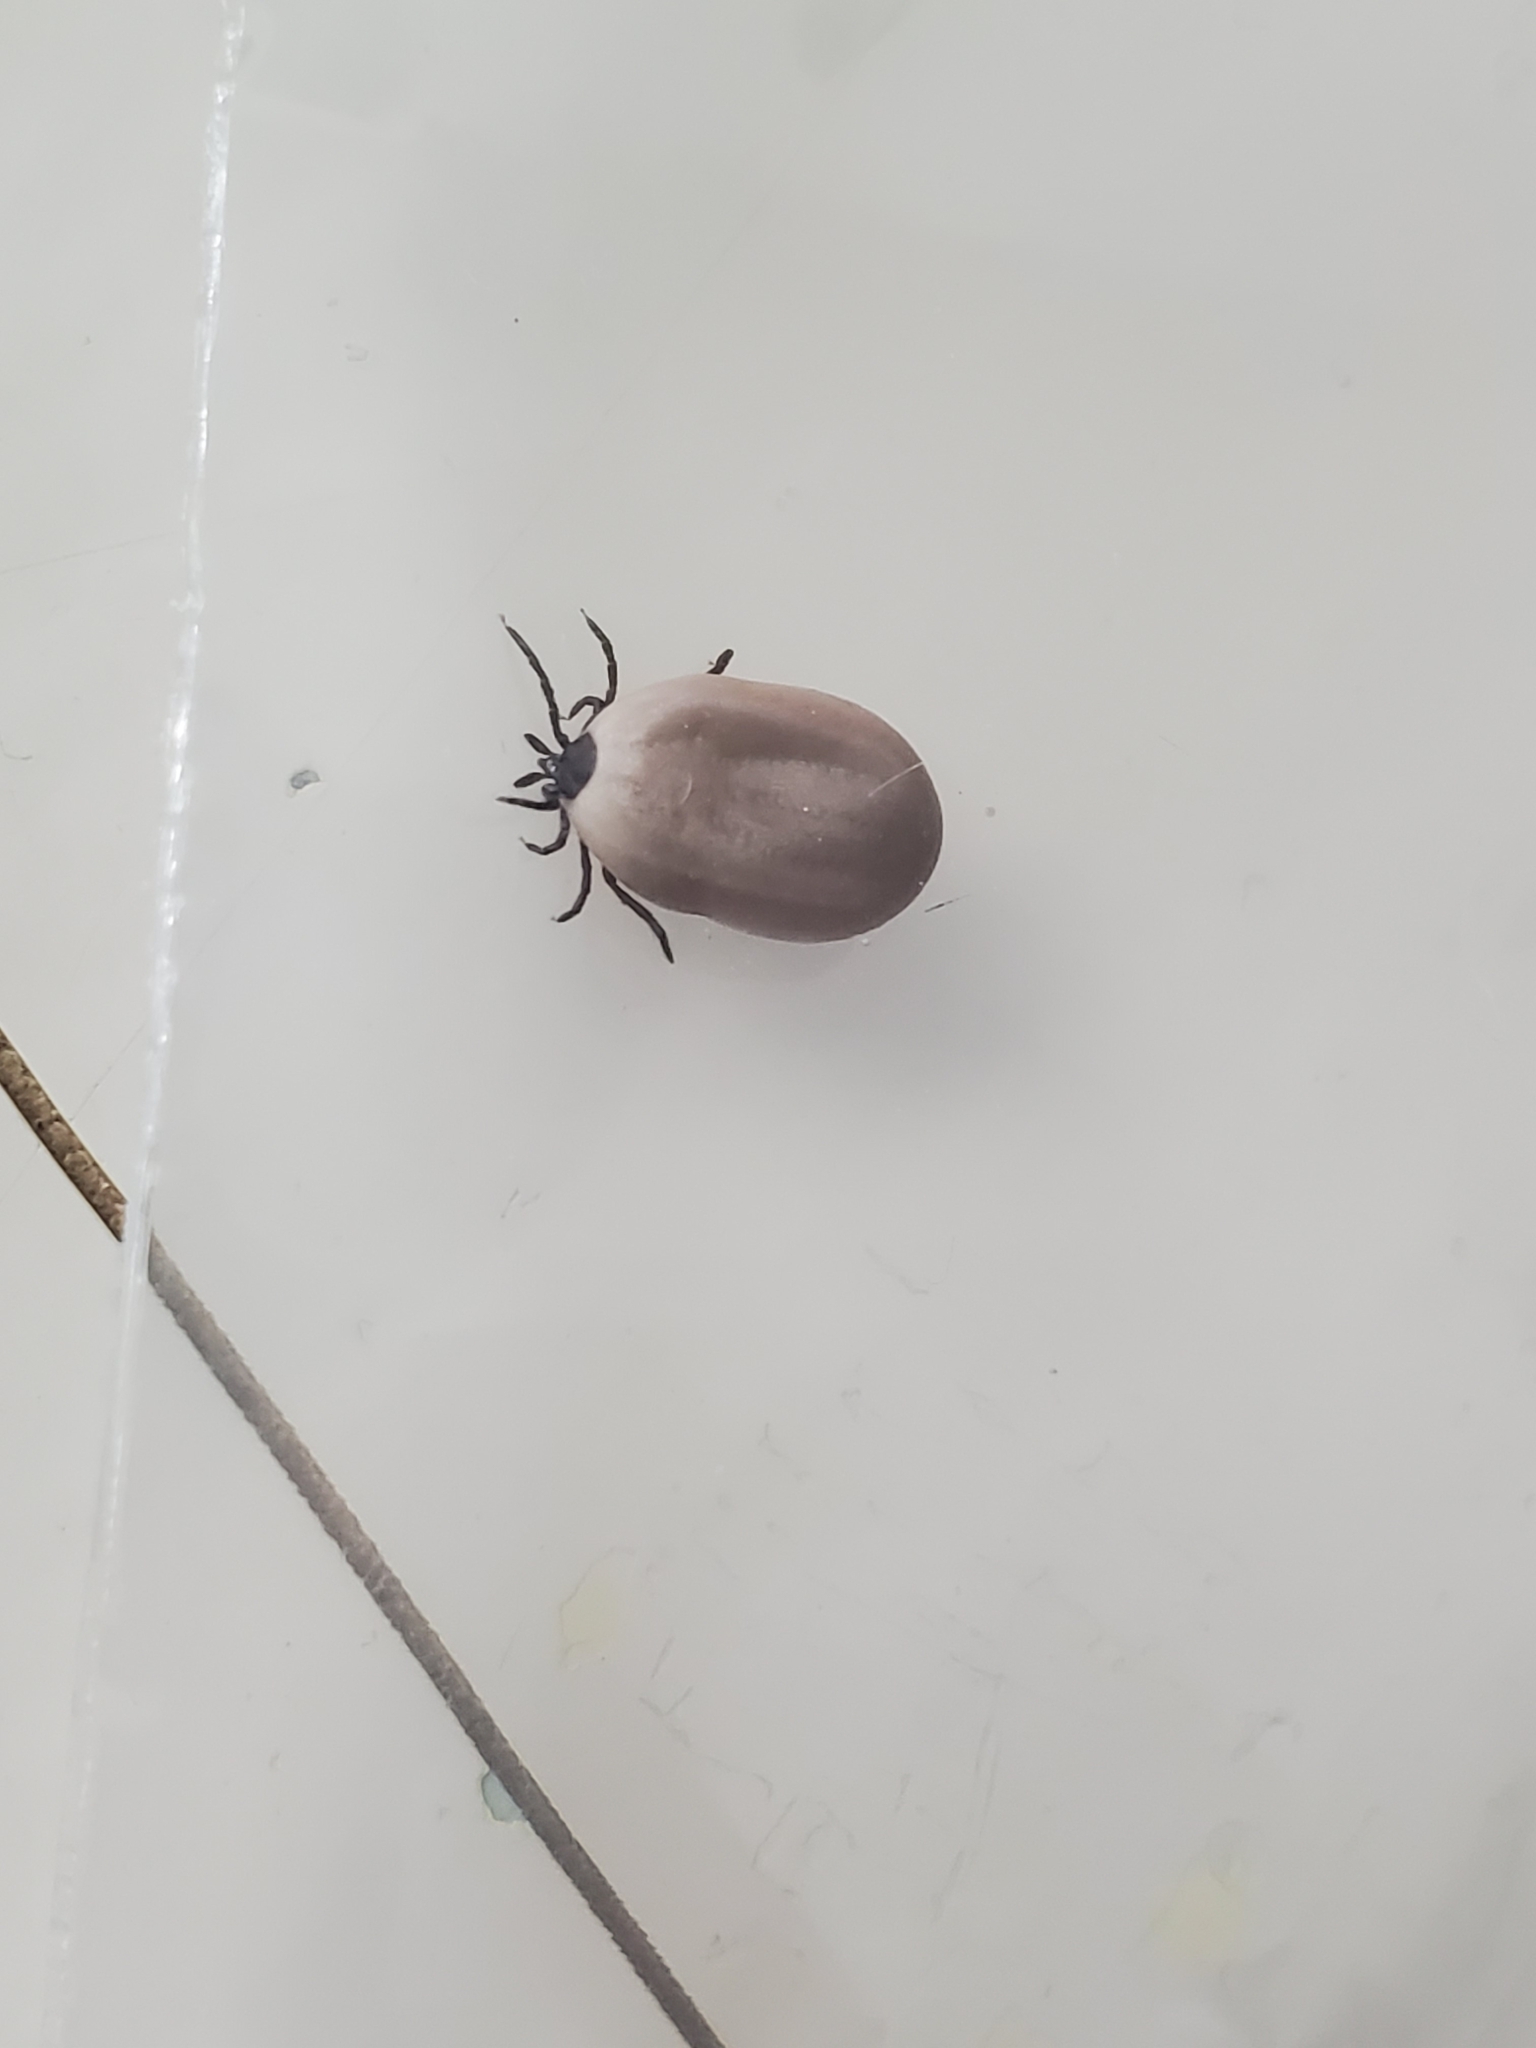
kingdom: Animalia
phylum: Arthropoda
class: Arachnida
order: Ixodida
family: Ixodidae
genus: Ixodes
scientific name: Ixodes pacificus
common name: California black-legged tick
